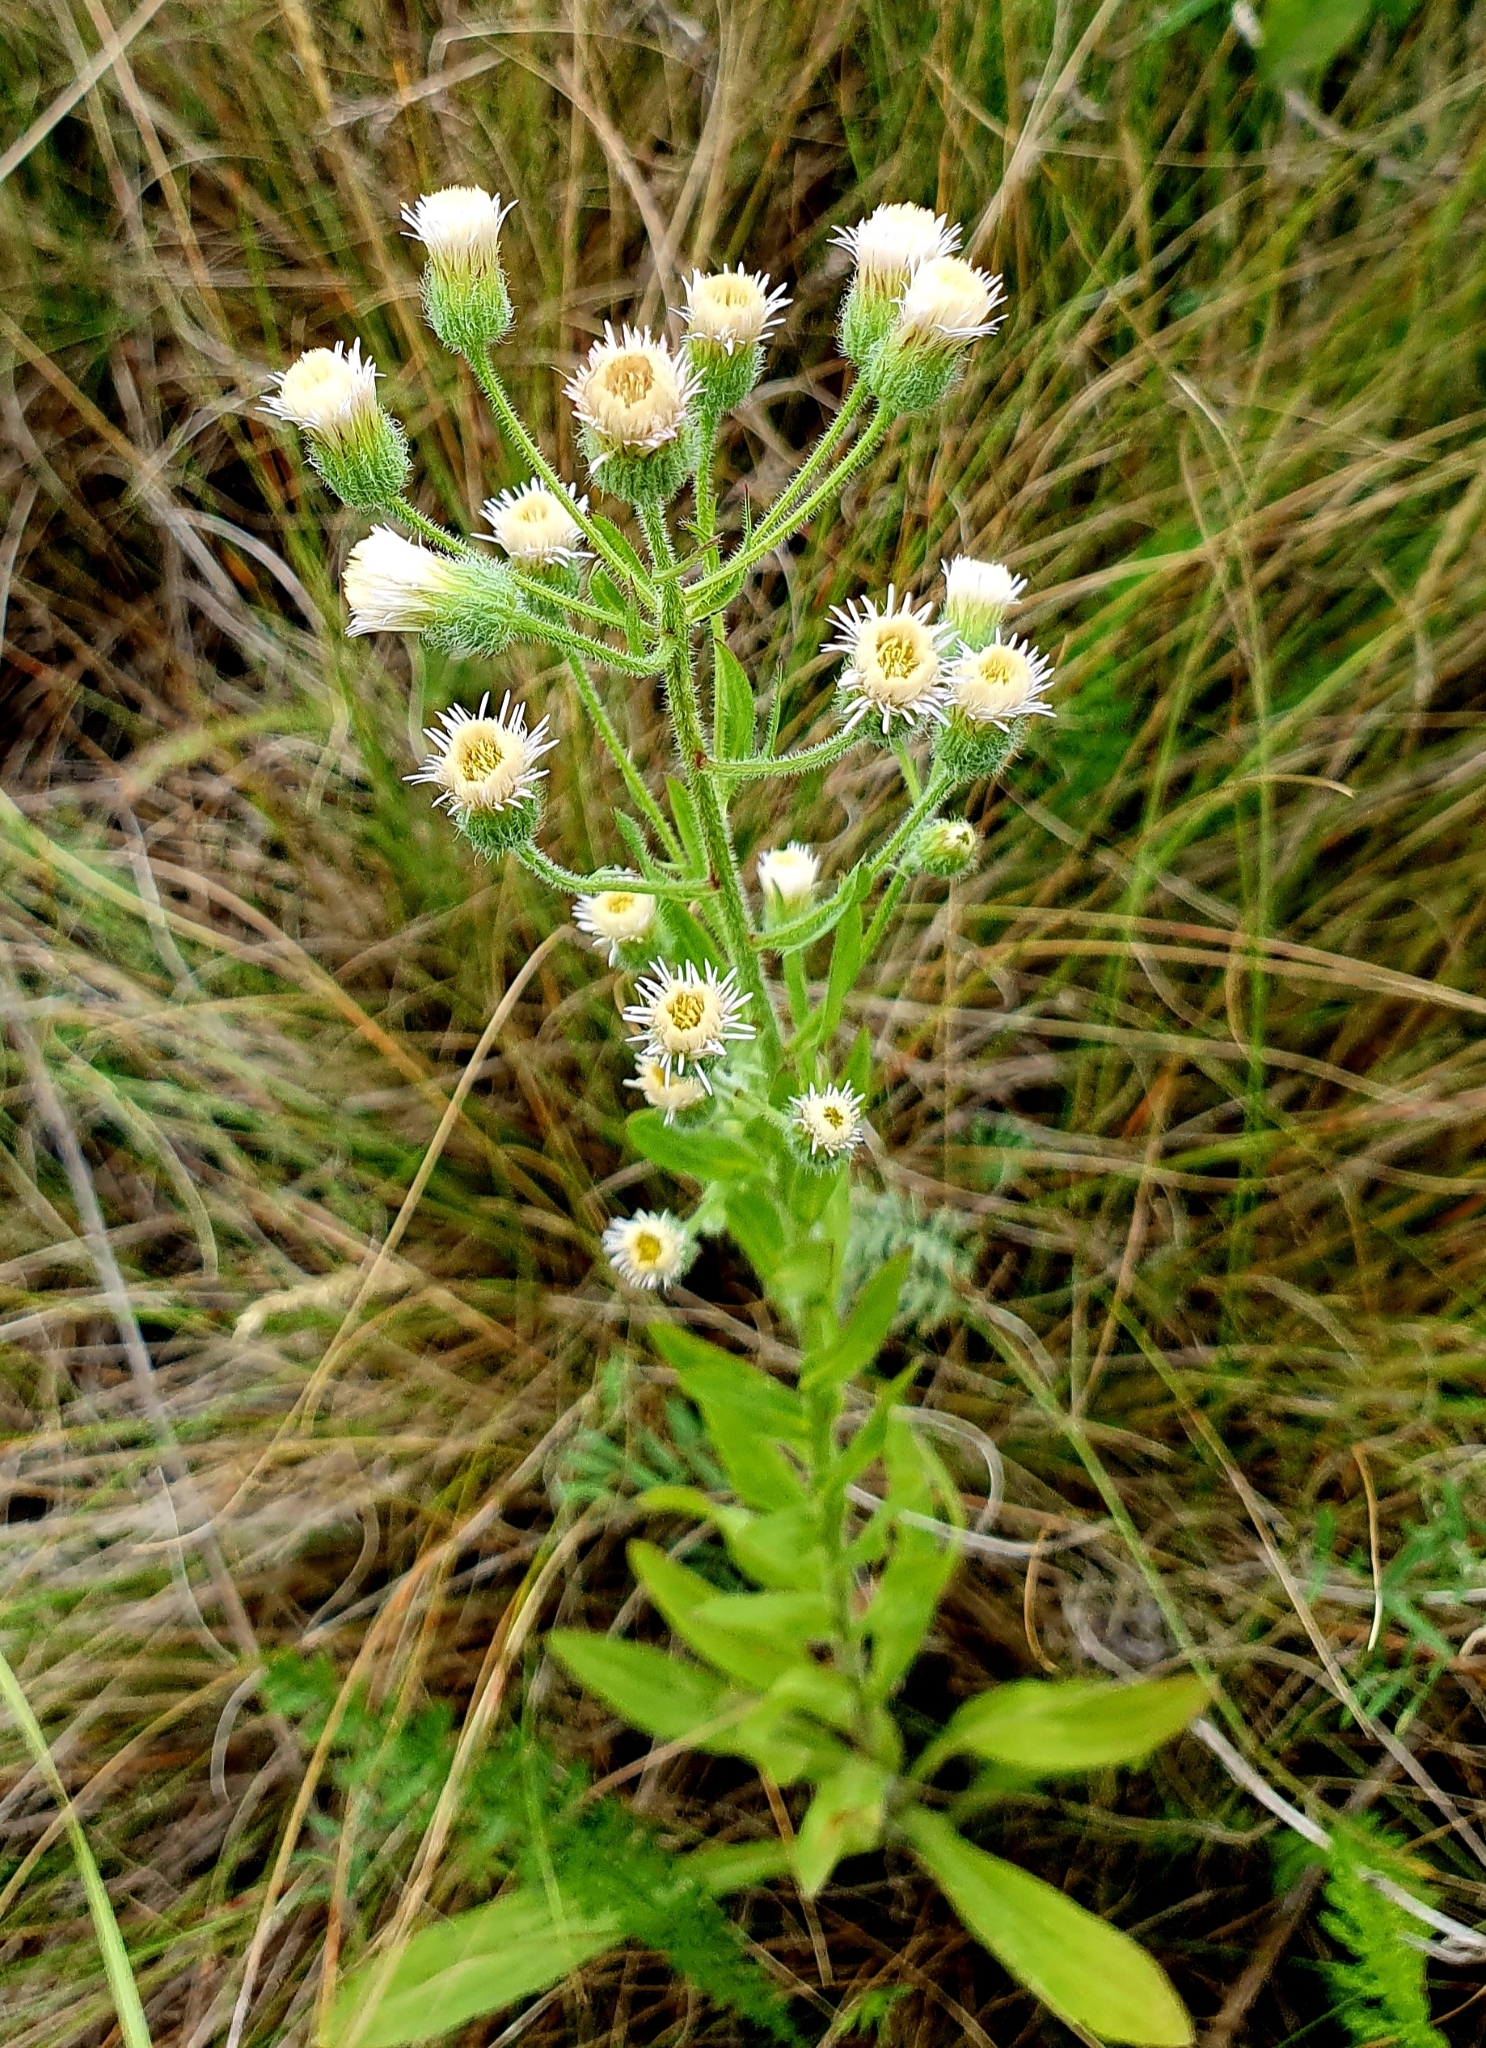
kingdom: Plantae
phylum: Tracheophyta
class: Magnoliopsida
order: Asterales
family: Asteraceae
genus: Erigeron
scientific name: Erigeron acris
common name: Blue fleabane
